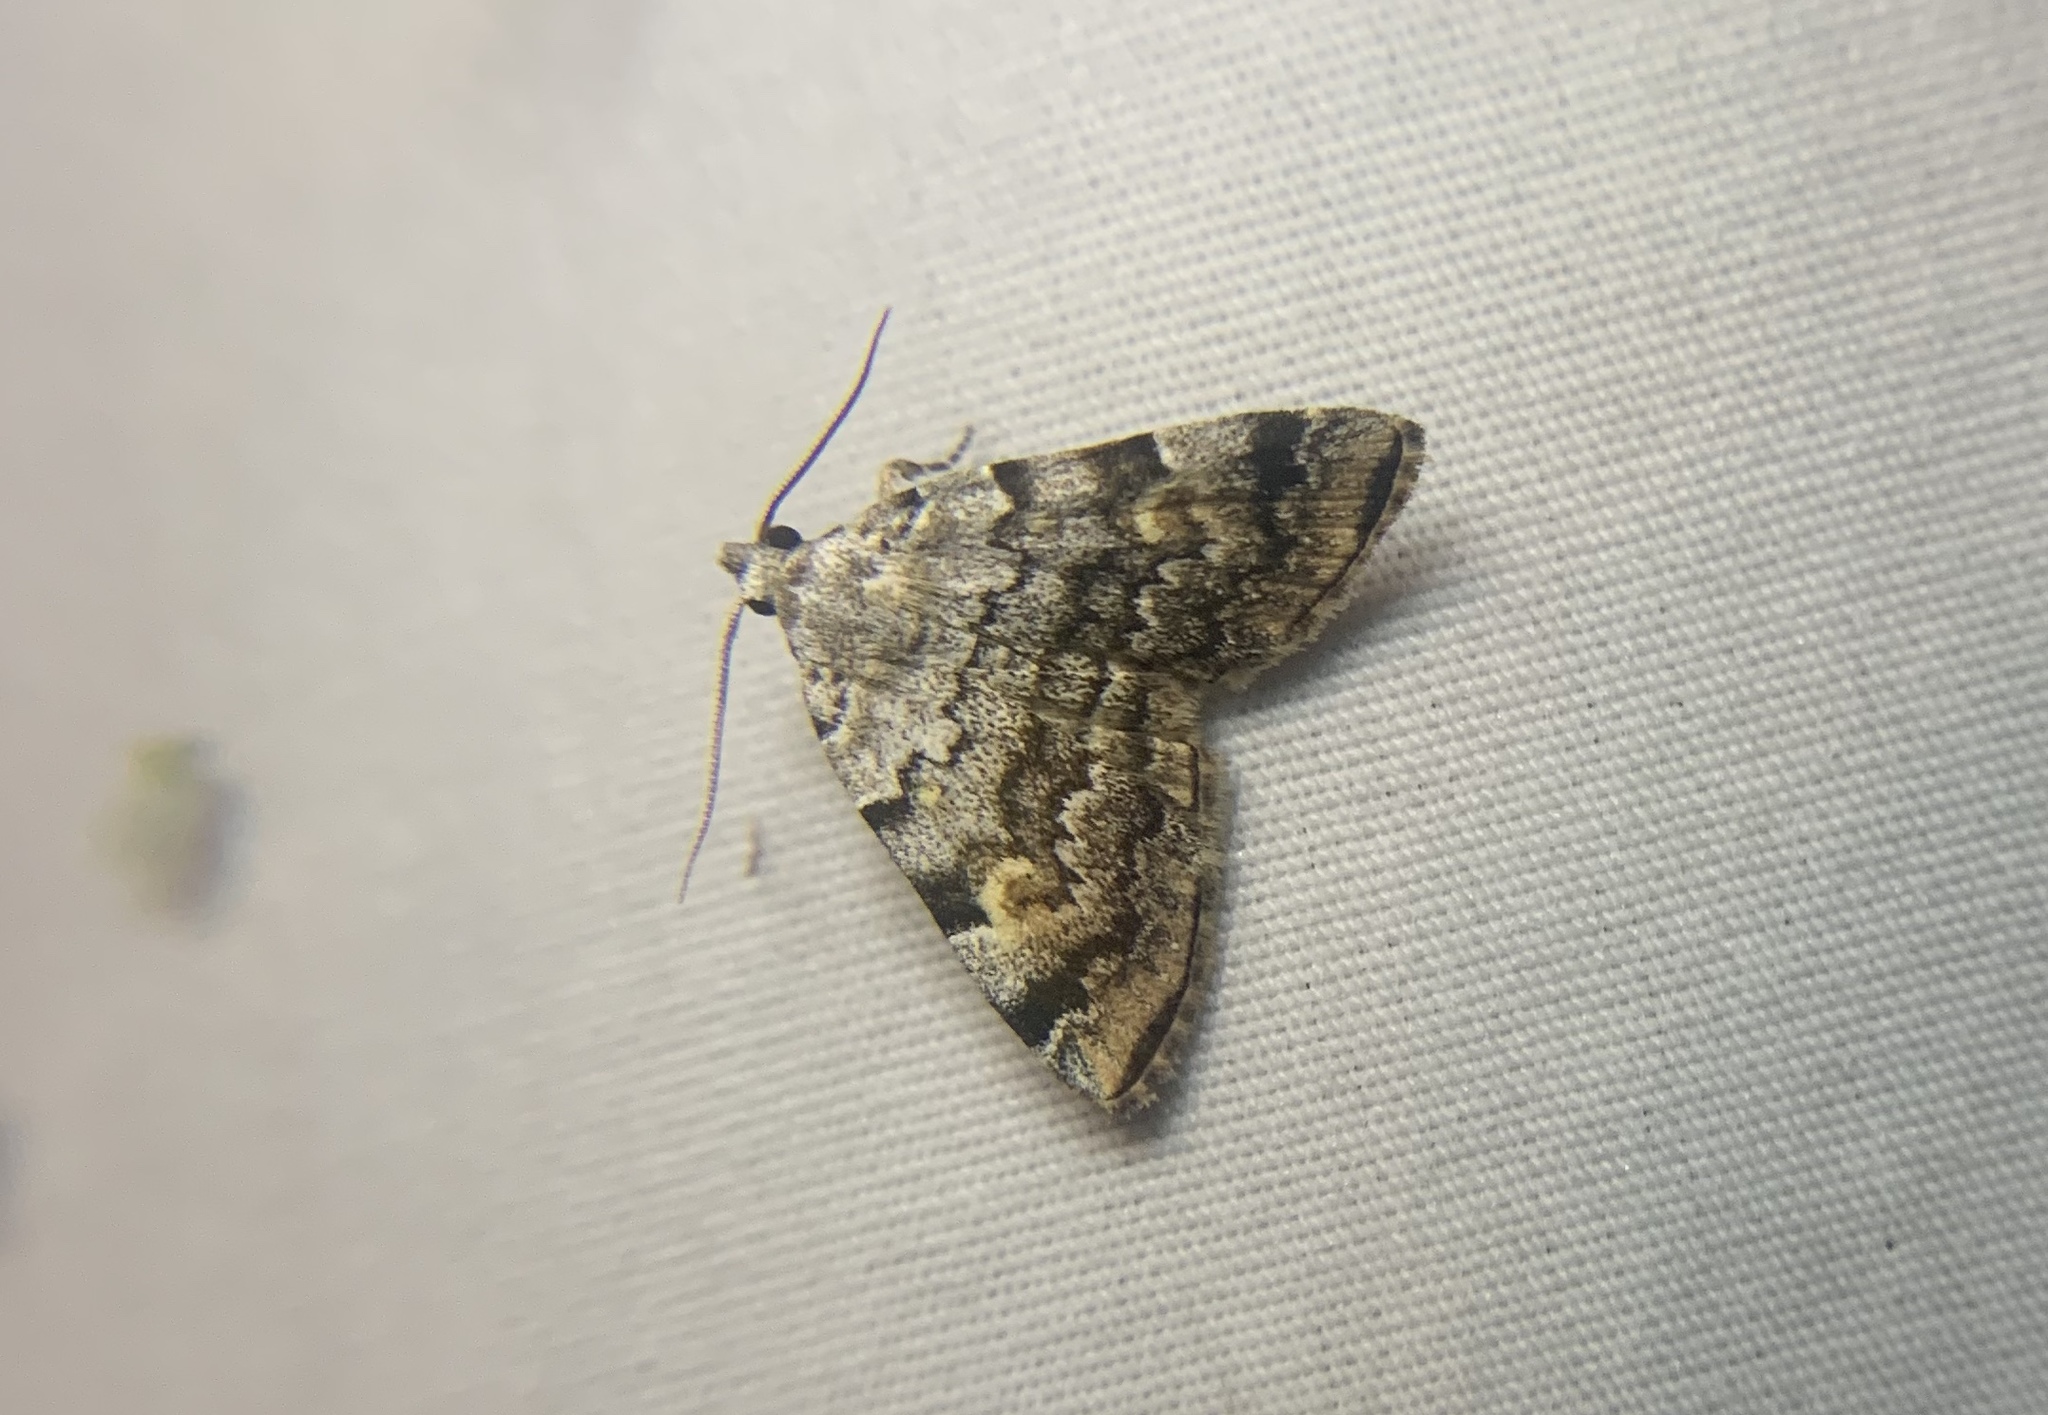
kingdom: Animalia
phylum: Arthropoda
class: Insecta
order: Lepidoptera
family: Erebidae
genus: Idia
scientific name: Idia americalis
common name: American idia moth
